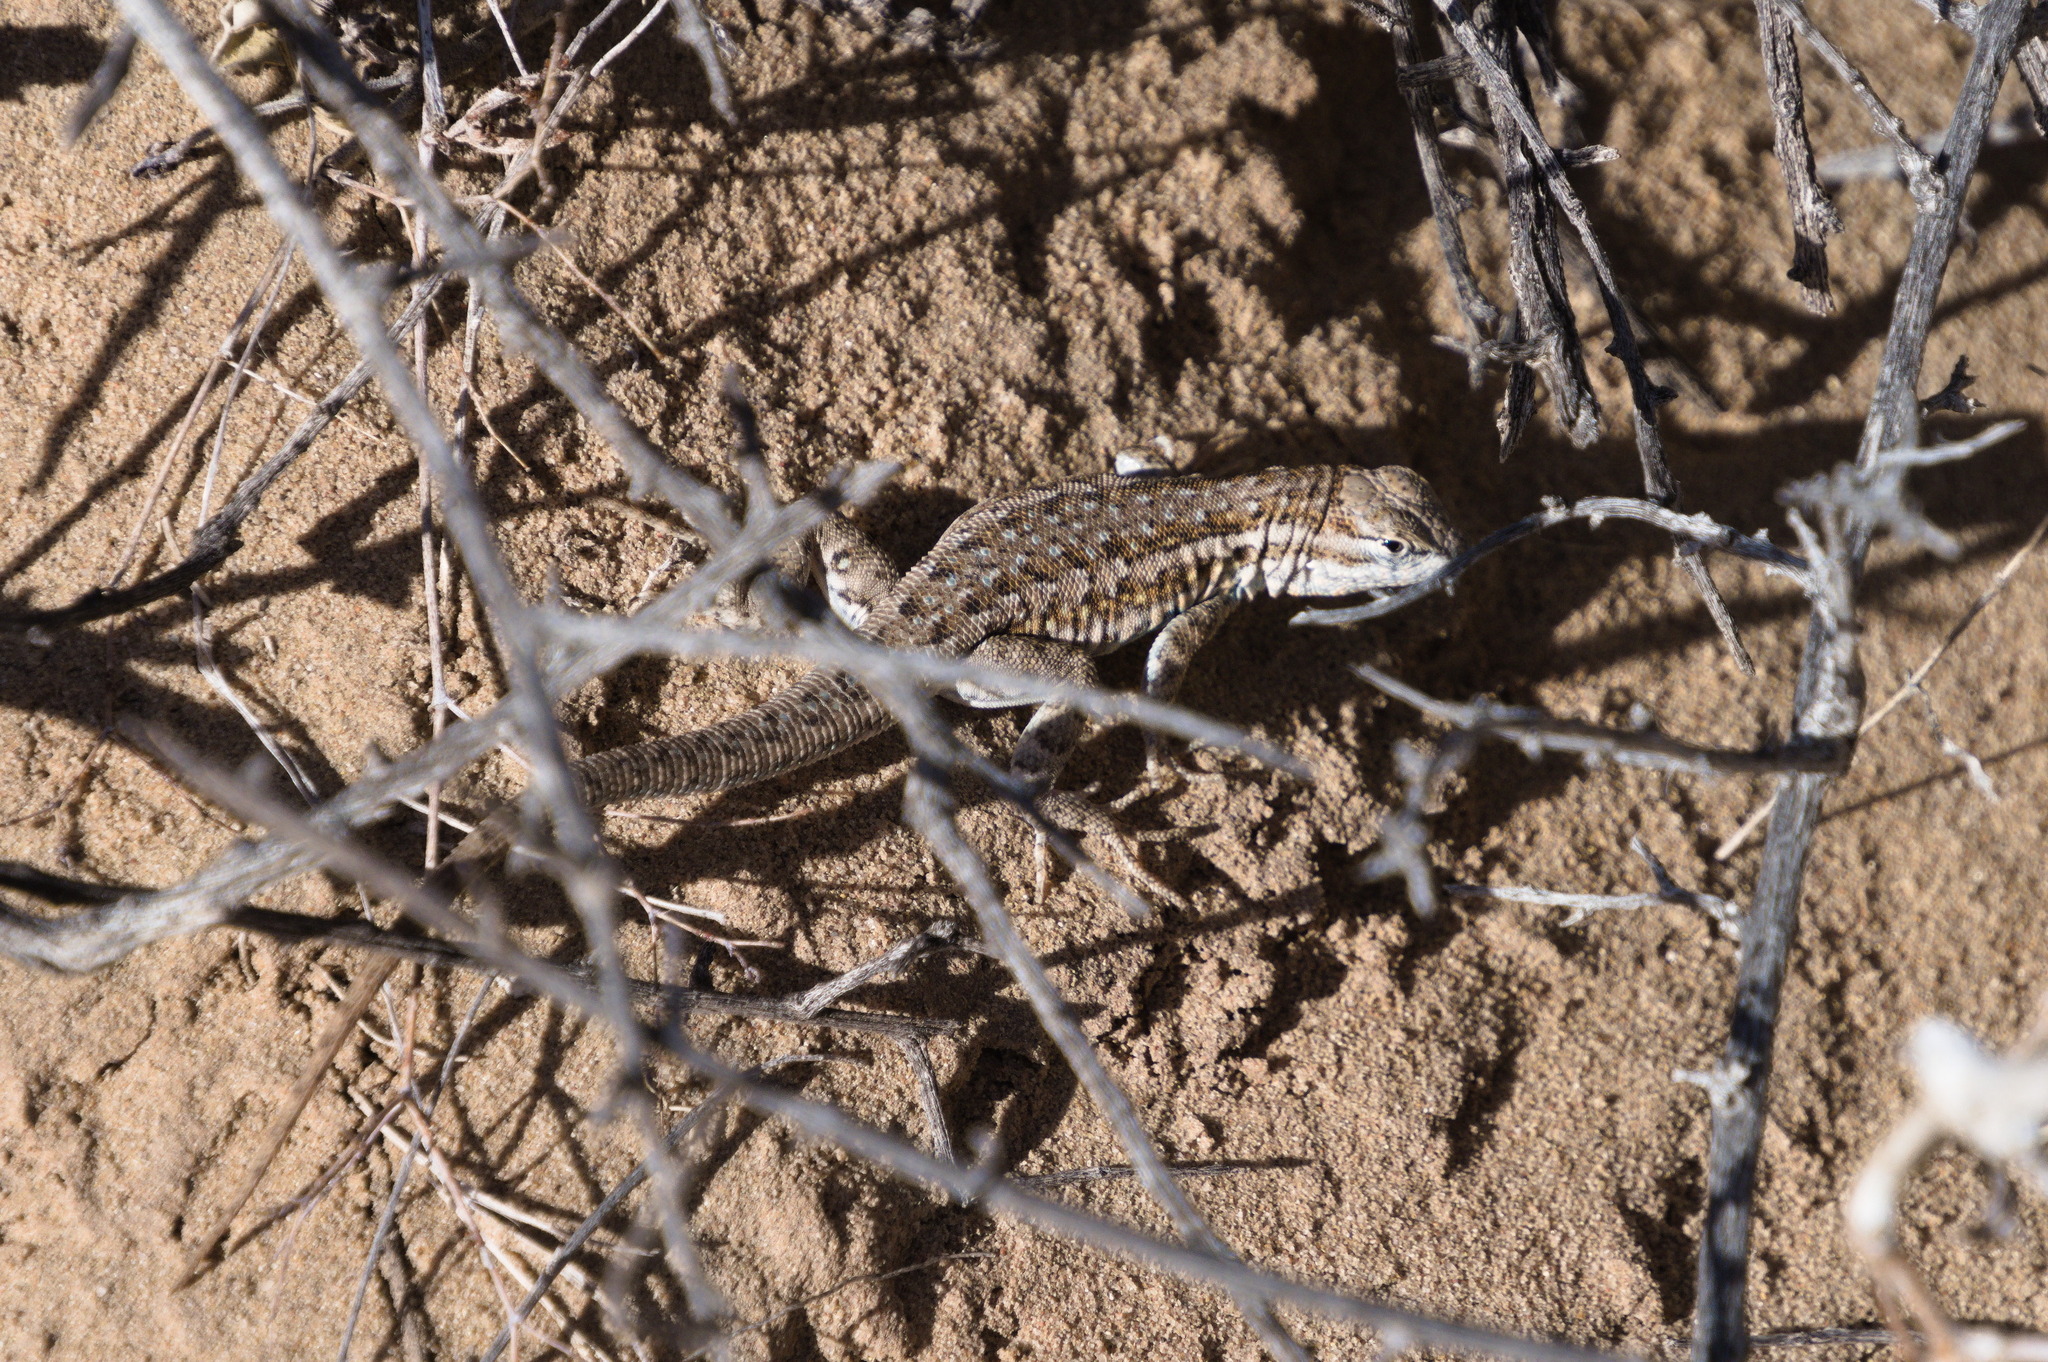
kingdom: Animalia
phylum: Chordata
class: Squamata
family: Phrynosomatidae
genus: Uta
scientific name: Uta stansburiana
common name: Side-blotched lizard
